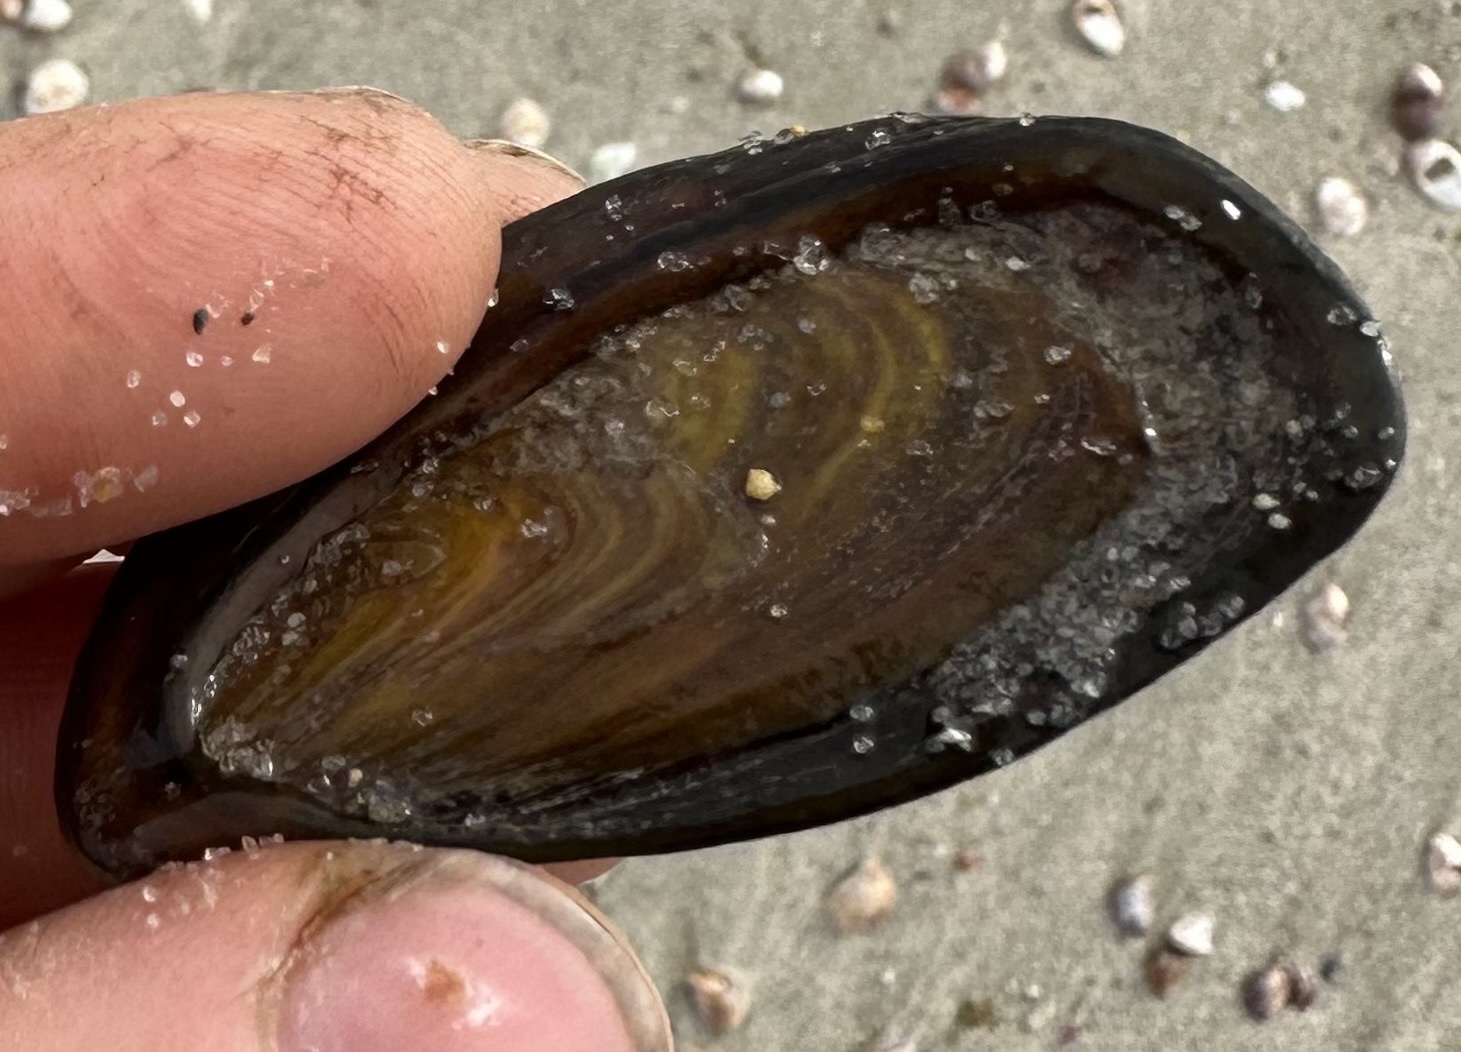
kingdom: Animalia
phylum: Mollusca
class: Gastropoda
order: Neogastropoda
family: Busyconidae
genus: Busycotypus
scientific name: Busycotypus canaliculatus
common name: Channeled whelk
